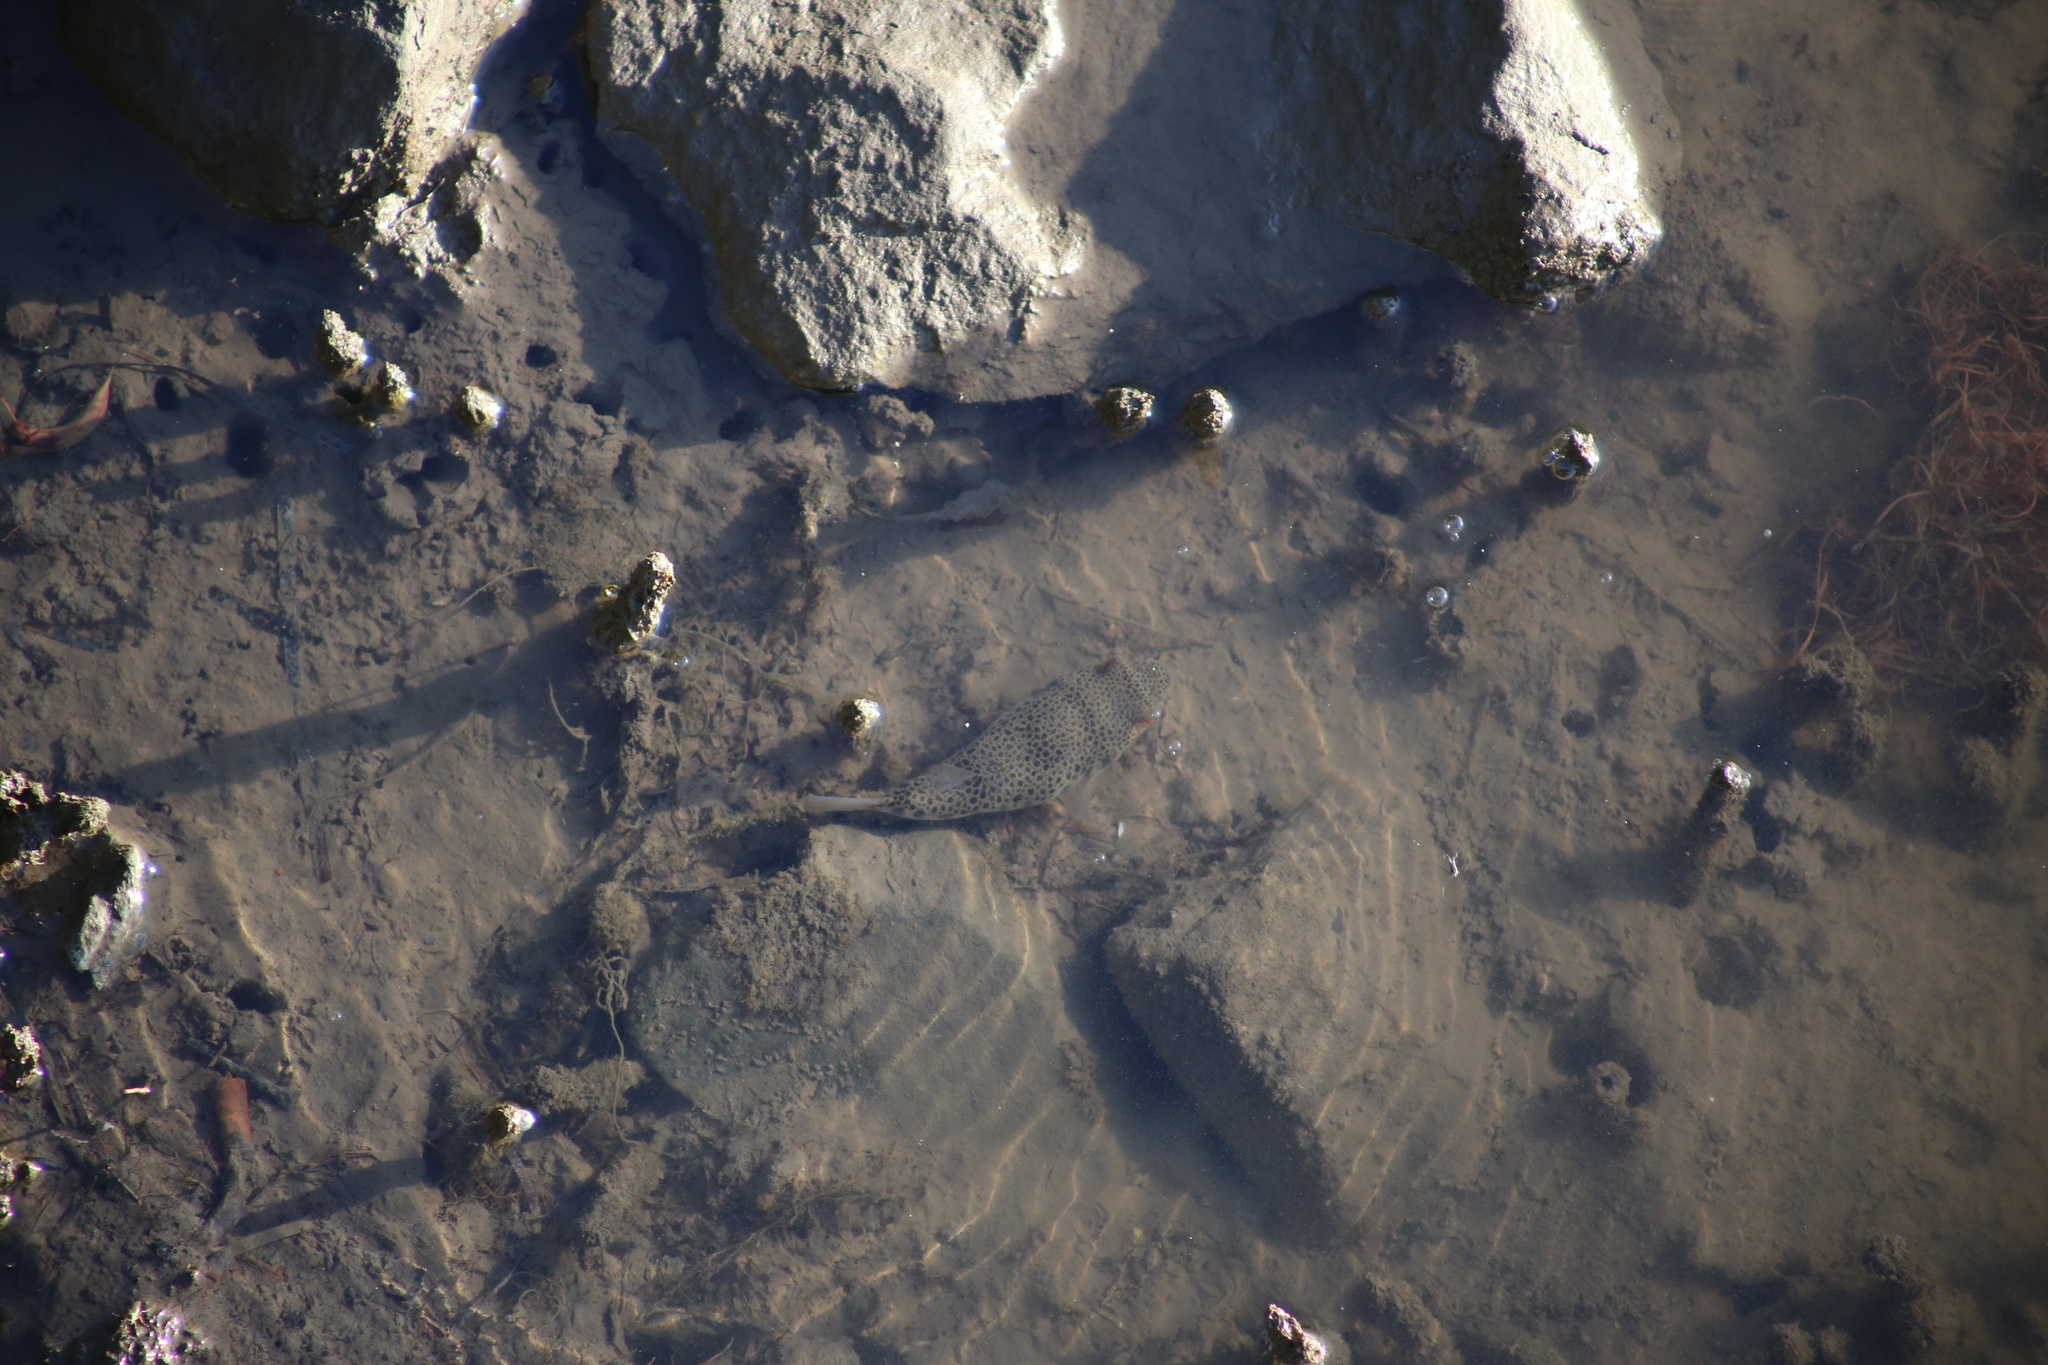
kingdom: Animalia
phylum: Chordata
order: Tetraodontiformes
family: Tetraodontidae
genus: Tetractenos
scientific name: Tetractenos hamiltoni
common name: Common toadfish
